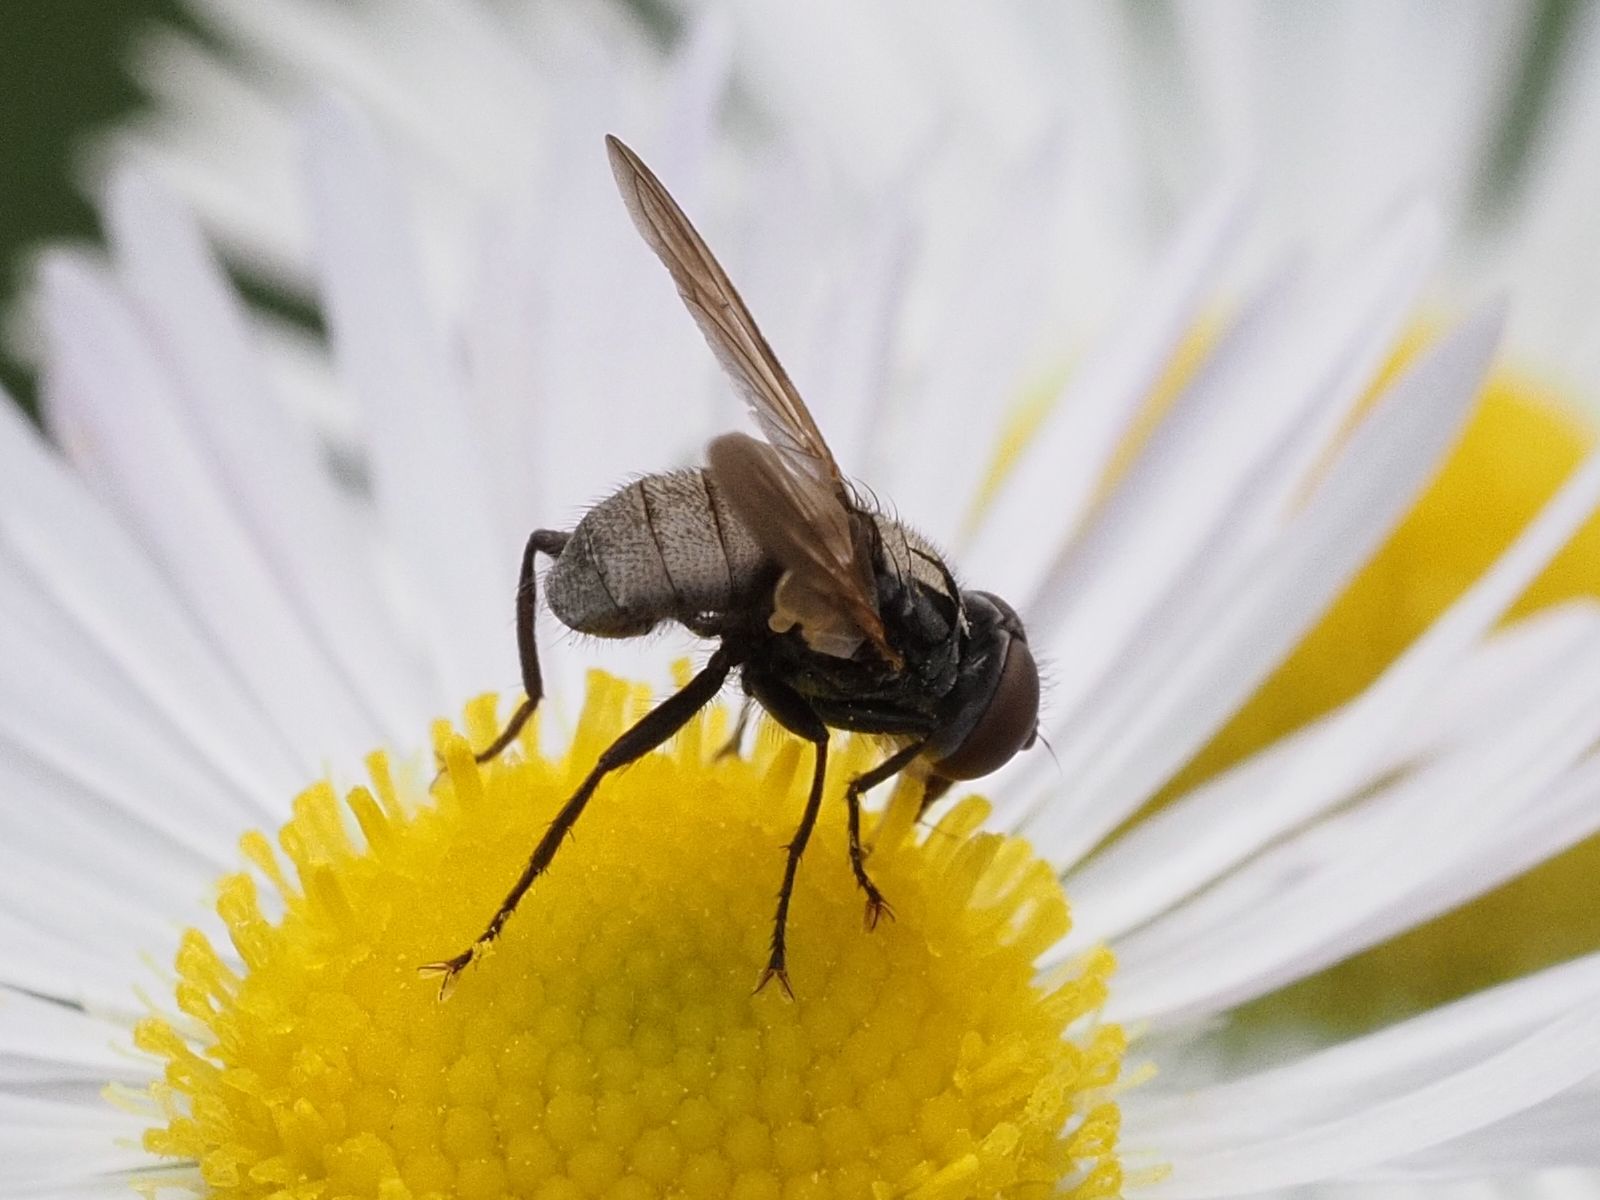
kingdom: Animalia
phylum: Arthropoda
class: Insecta
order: Diptera
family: Tachinidae
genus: Phasia
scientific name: Phasia obesa
